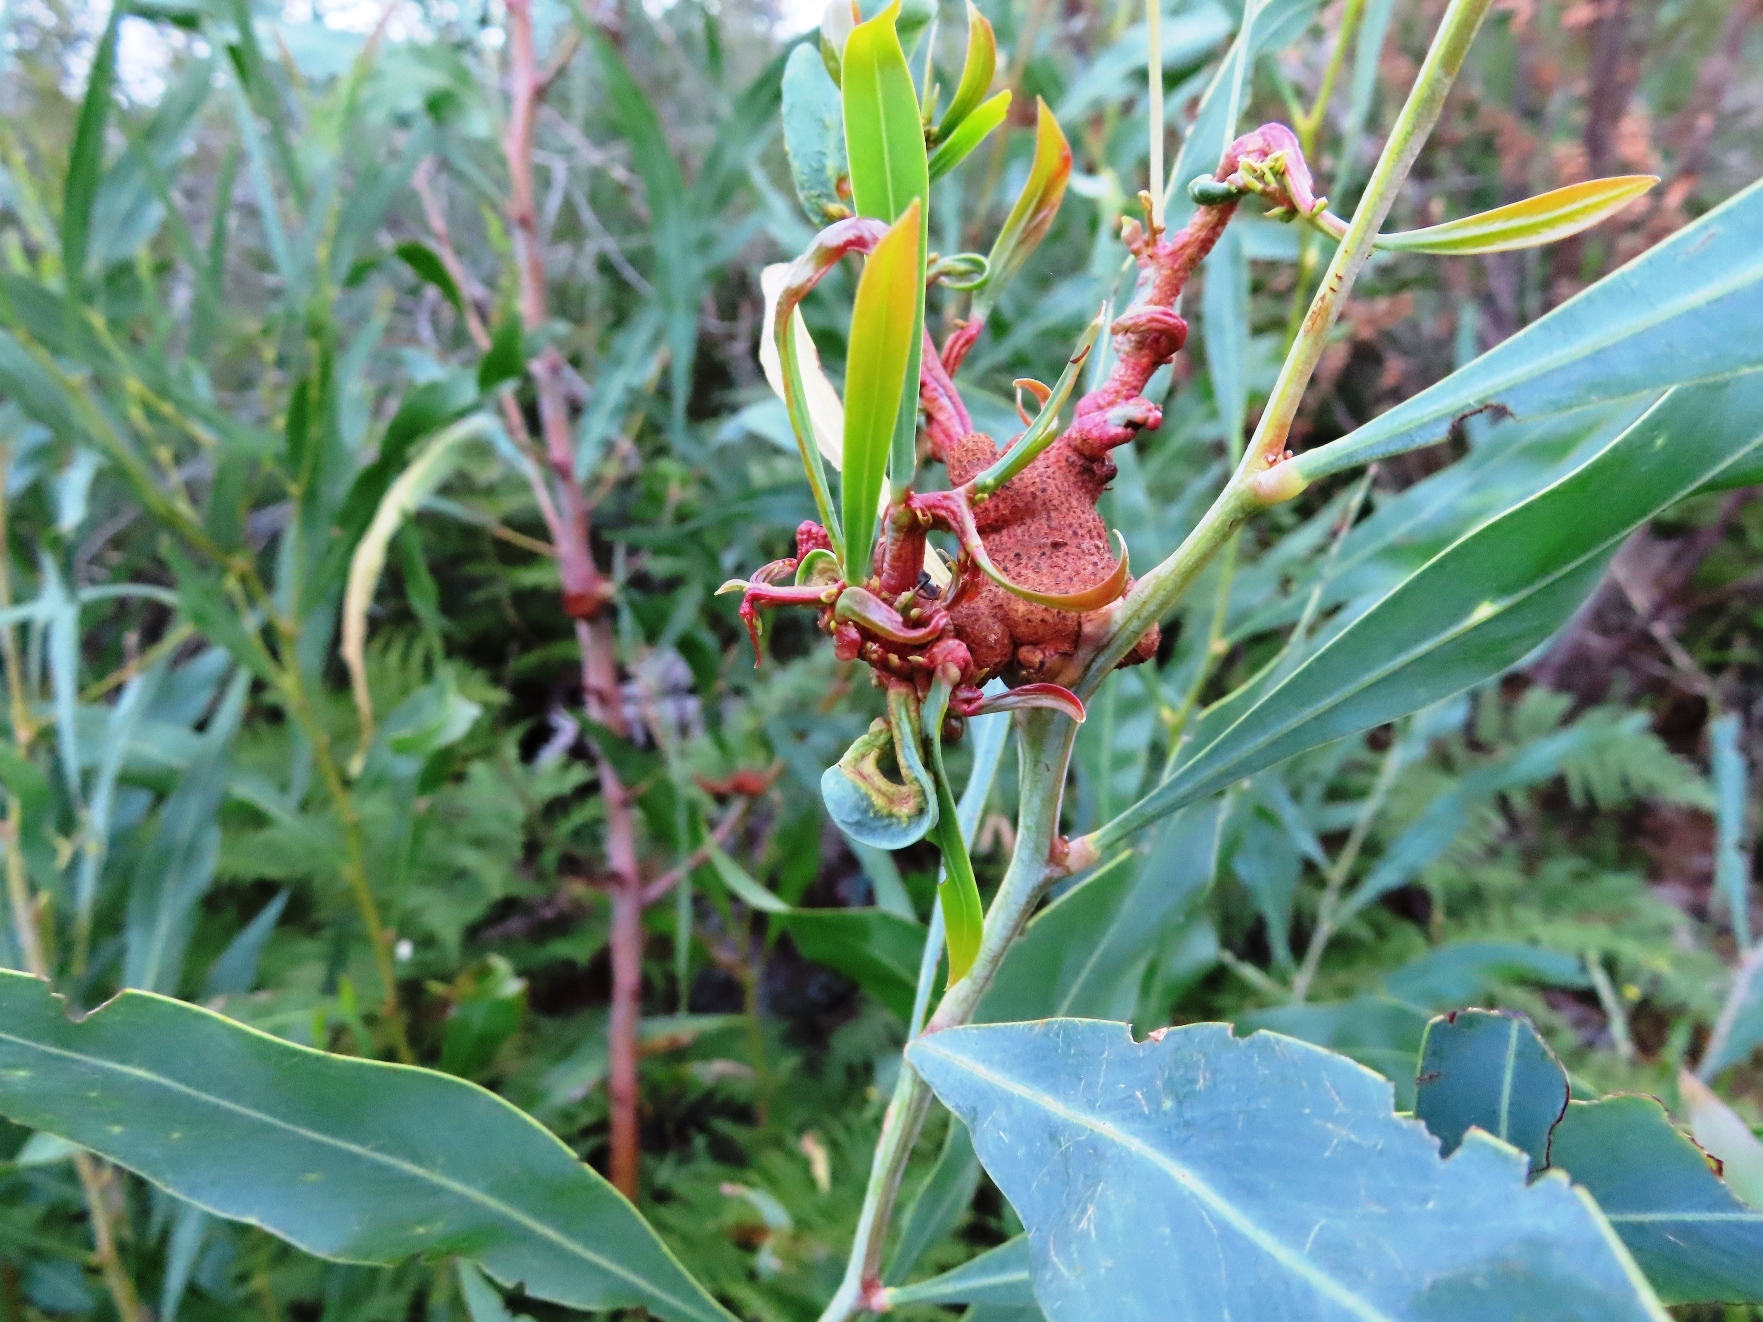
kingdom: Fungi
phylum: Basidiomycota
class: Pucciniomycetes
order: Pucciniales
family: Uromycladiaceae
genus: Uromycladium
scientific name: Uromycladium morrisii
